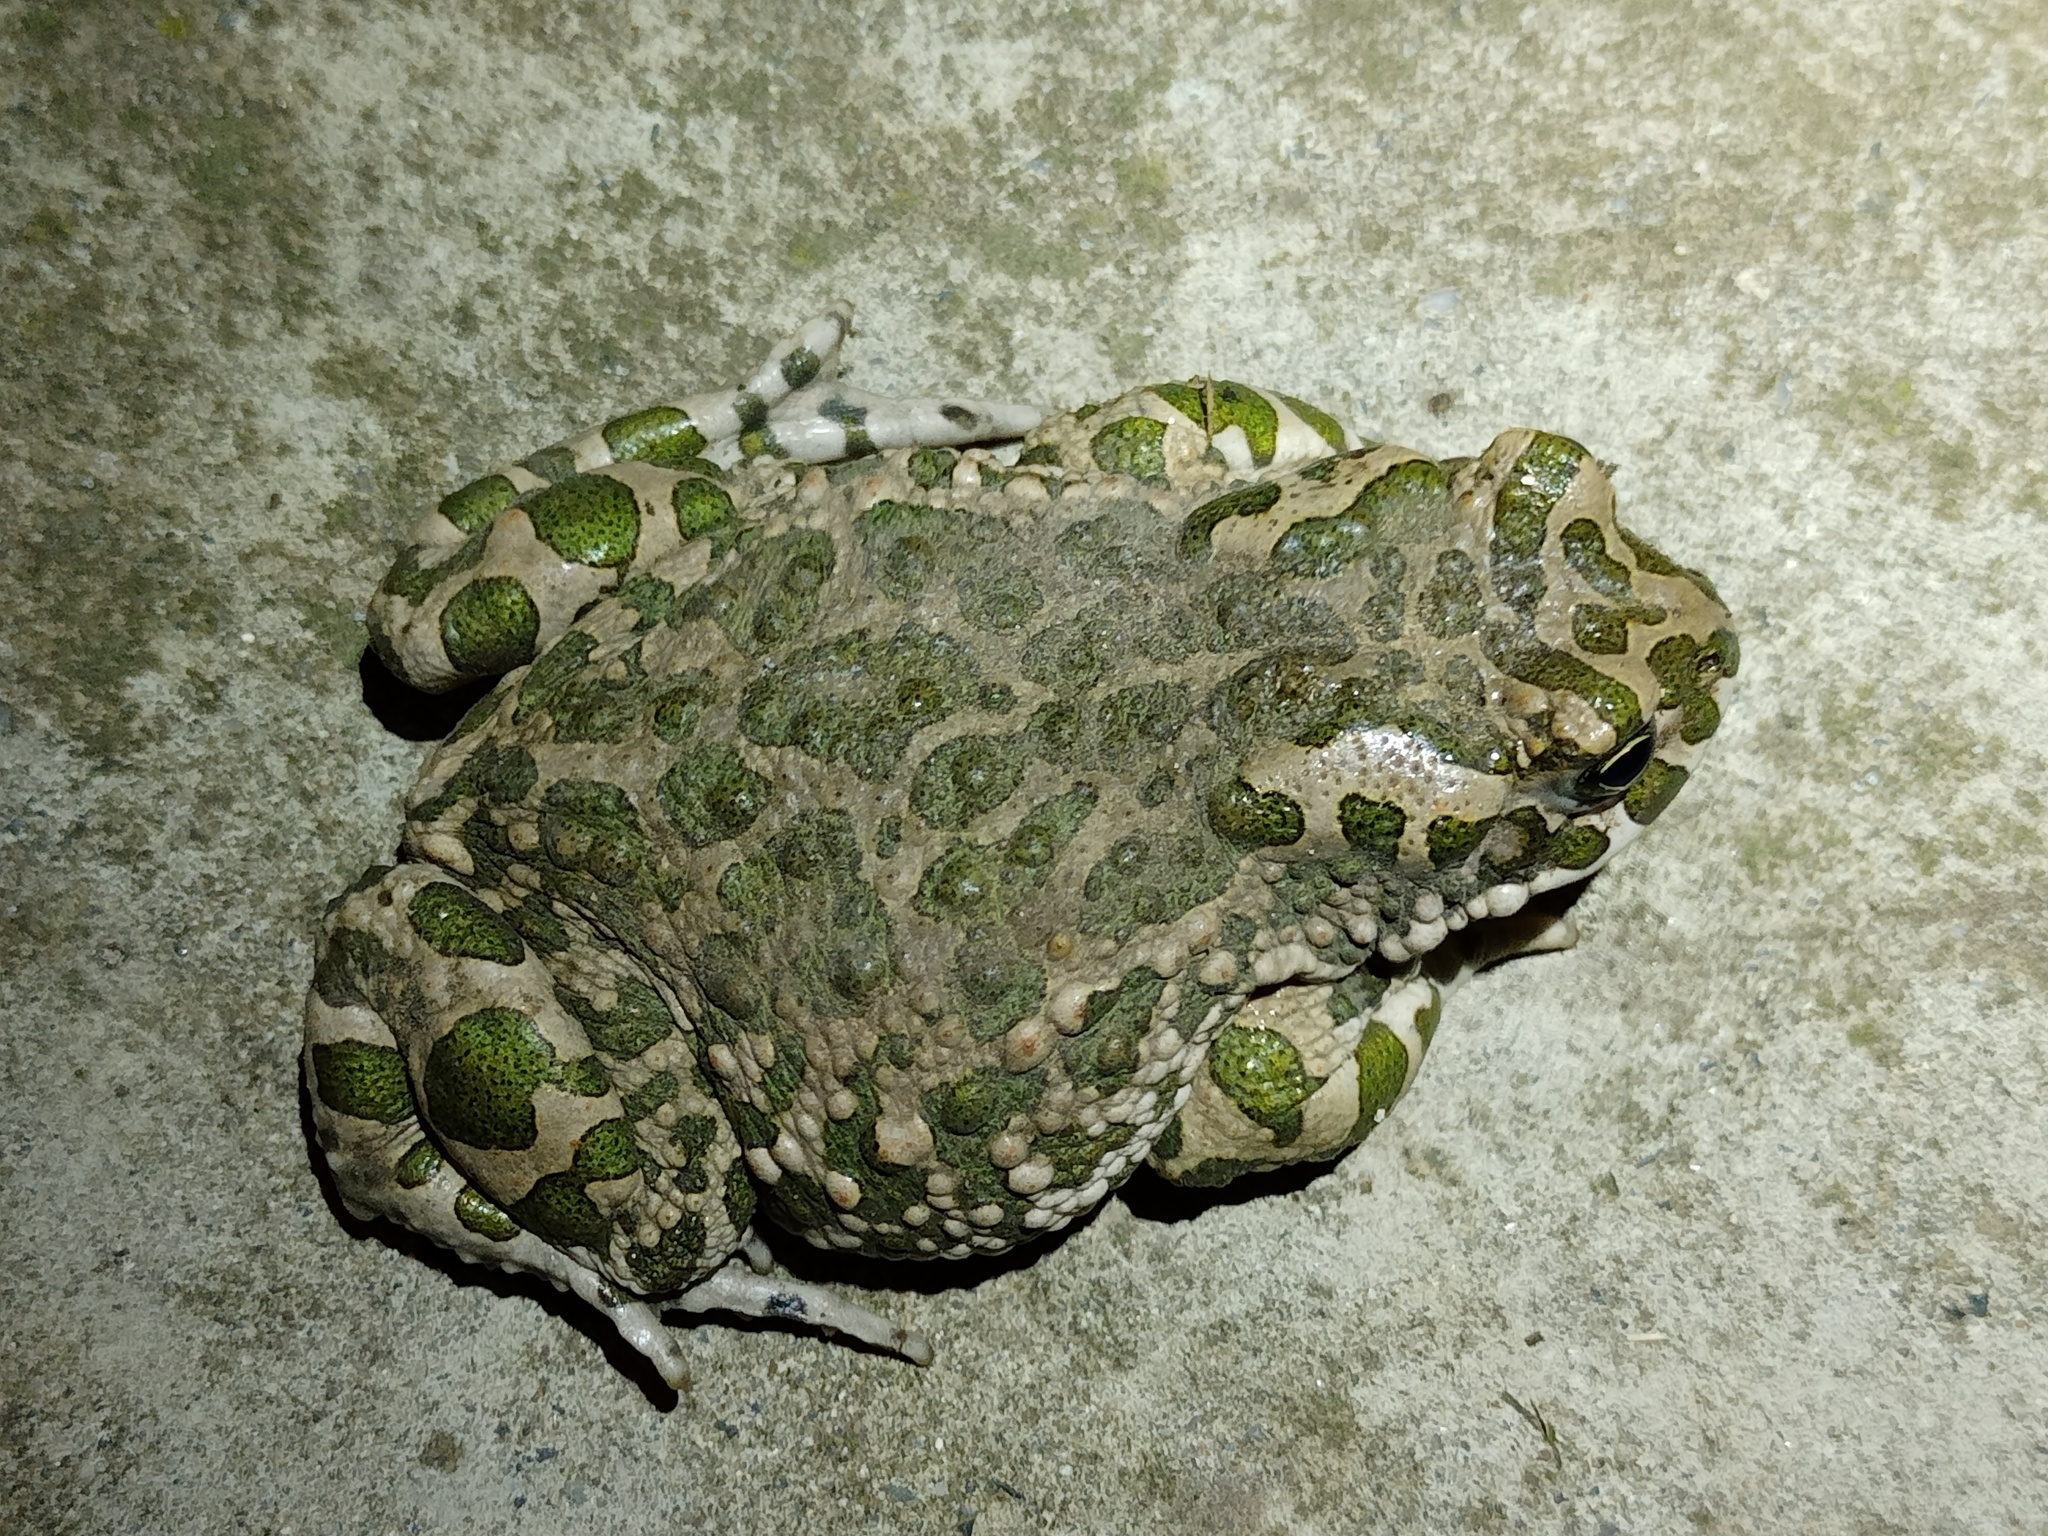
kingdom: Animalia
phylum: Chordata
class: Amphibia
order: Anura
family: Bufonidae
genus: Bufotes
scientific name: Bufotes viridis
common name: European green toad
